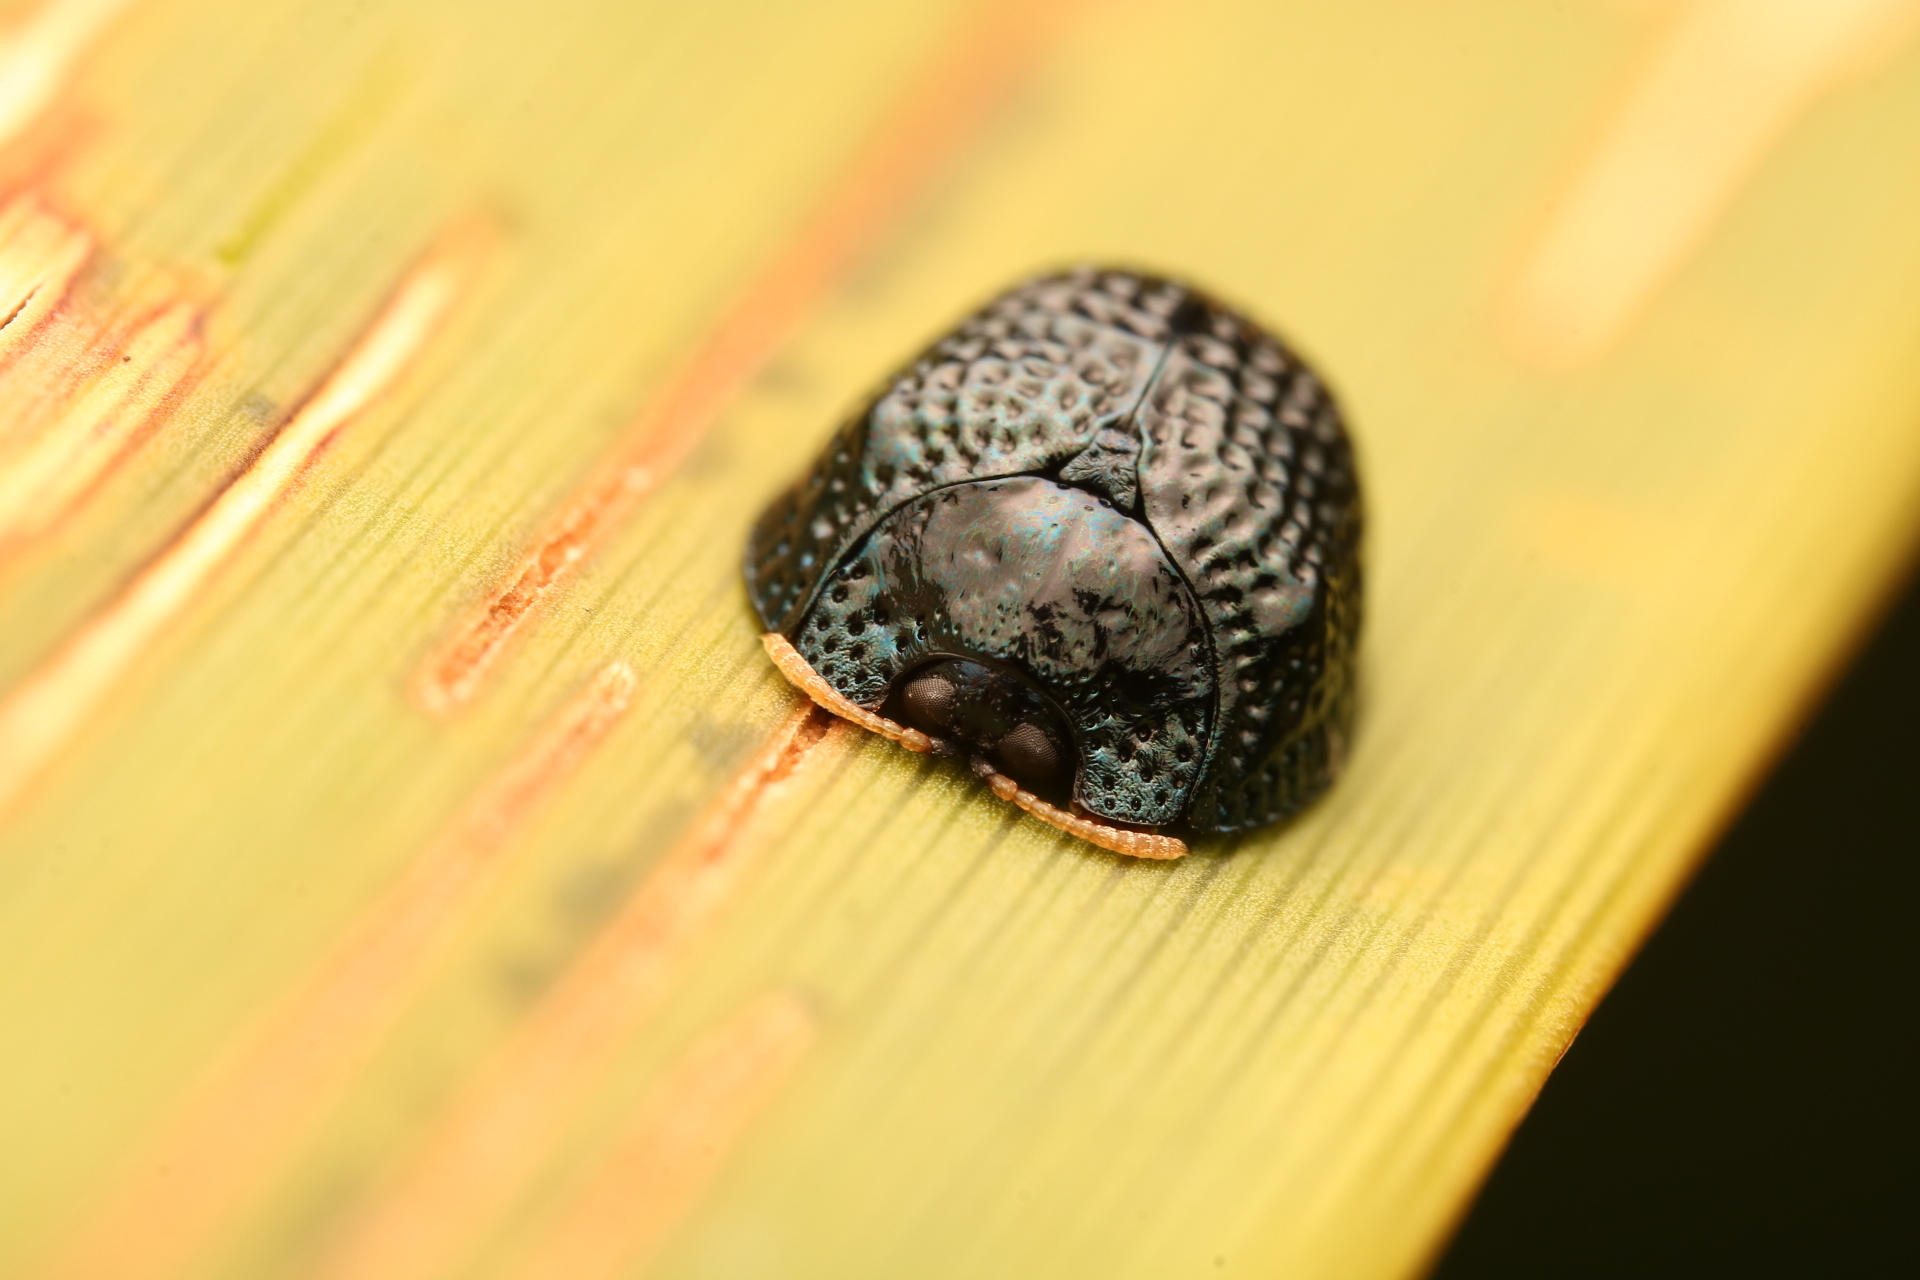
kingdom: Animalia
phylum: Arthropoda
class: Insecta
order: Coleoptera
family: Chrysomelidae
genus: Hemisphaerota
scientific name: Hemisphaerota cyanea
